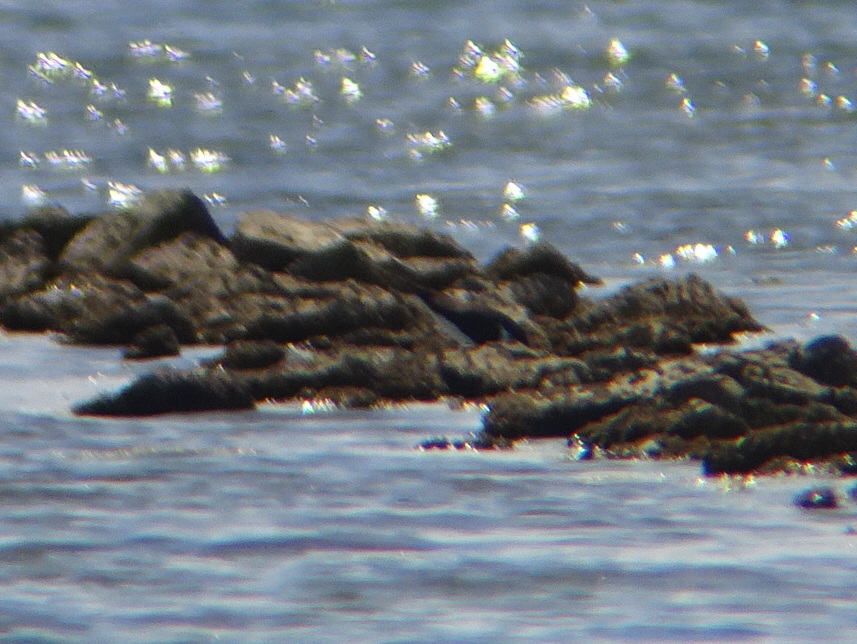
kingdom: Animalia
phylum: Chordata
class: Aves
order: Charadriiformes
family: Haematopodidae
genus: Haematopus
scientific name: Haematopus ostralegus
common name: Eurasian oystercatcher
